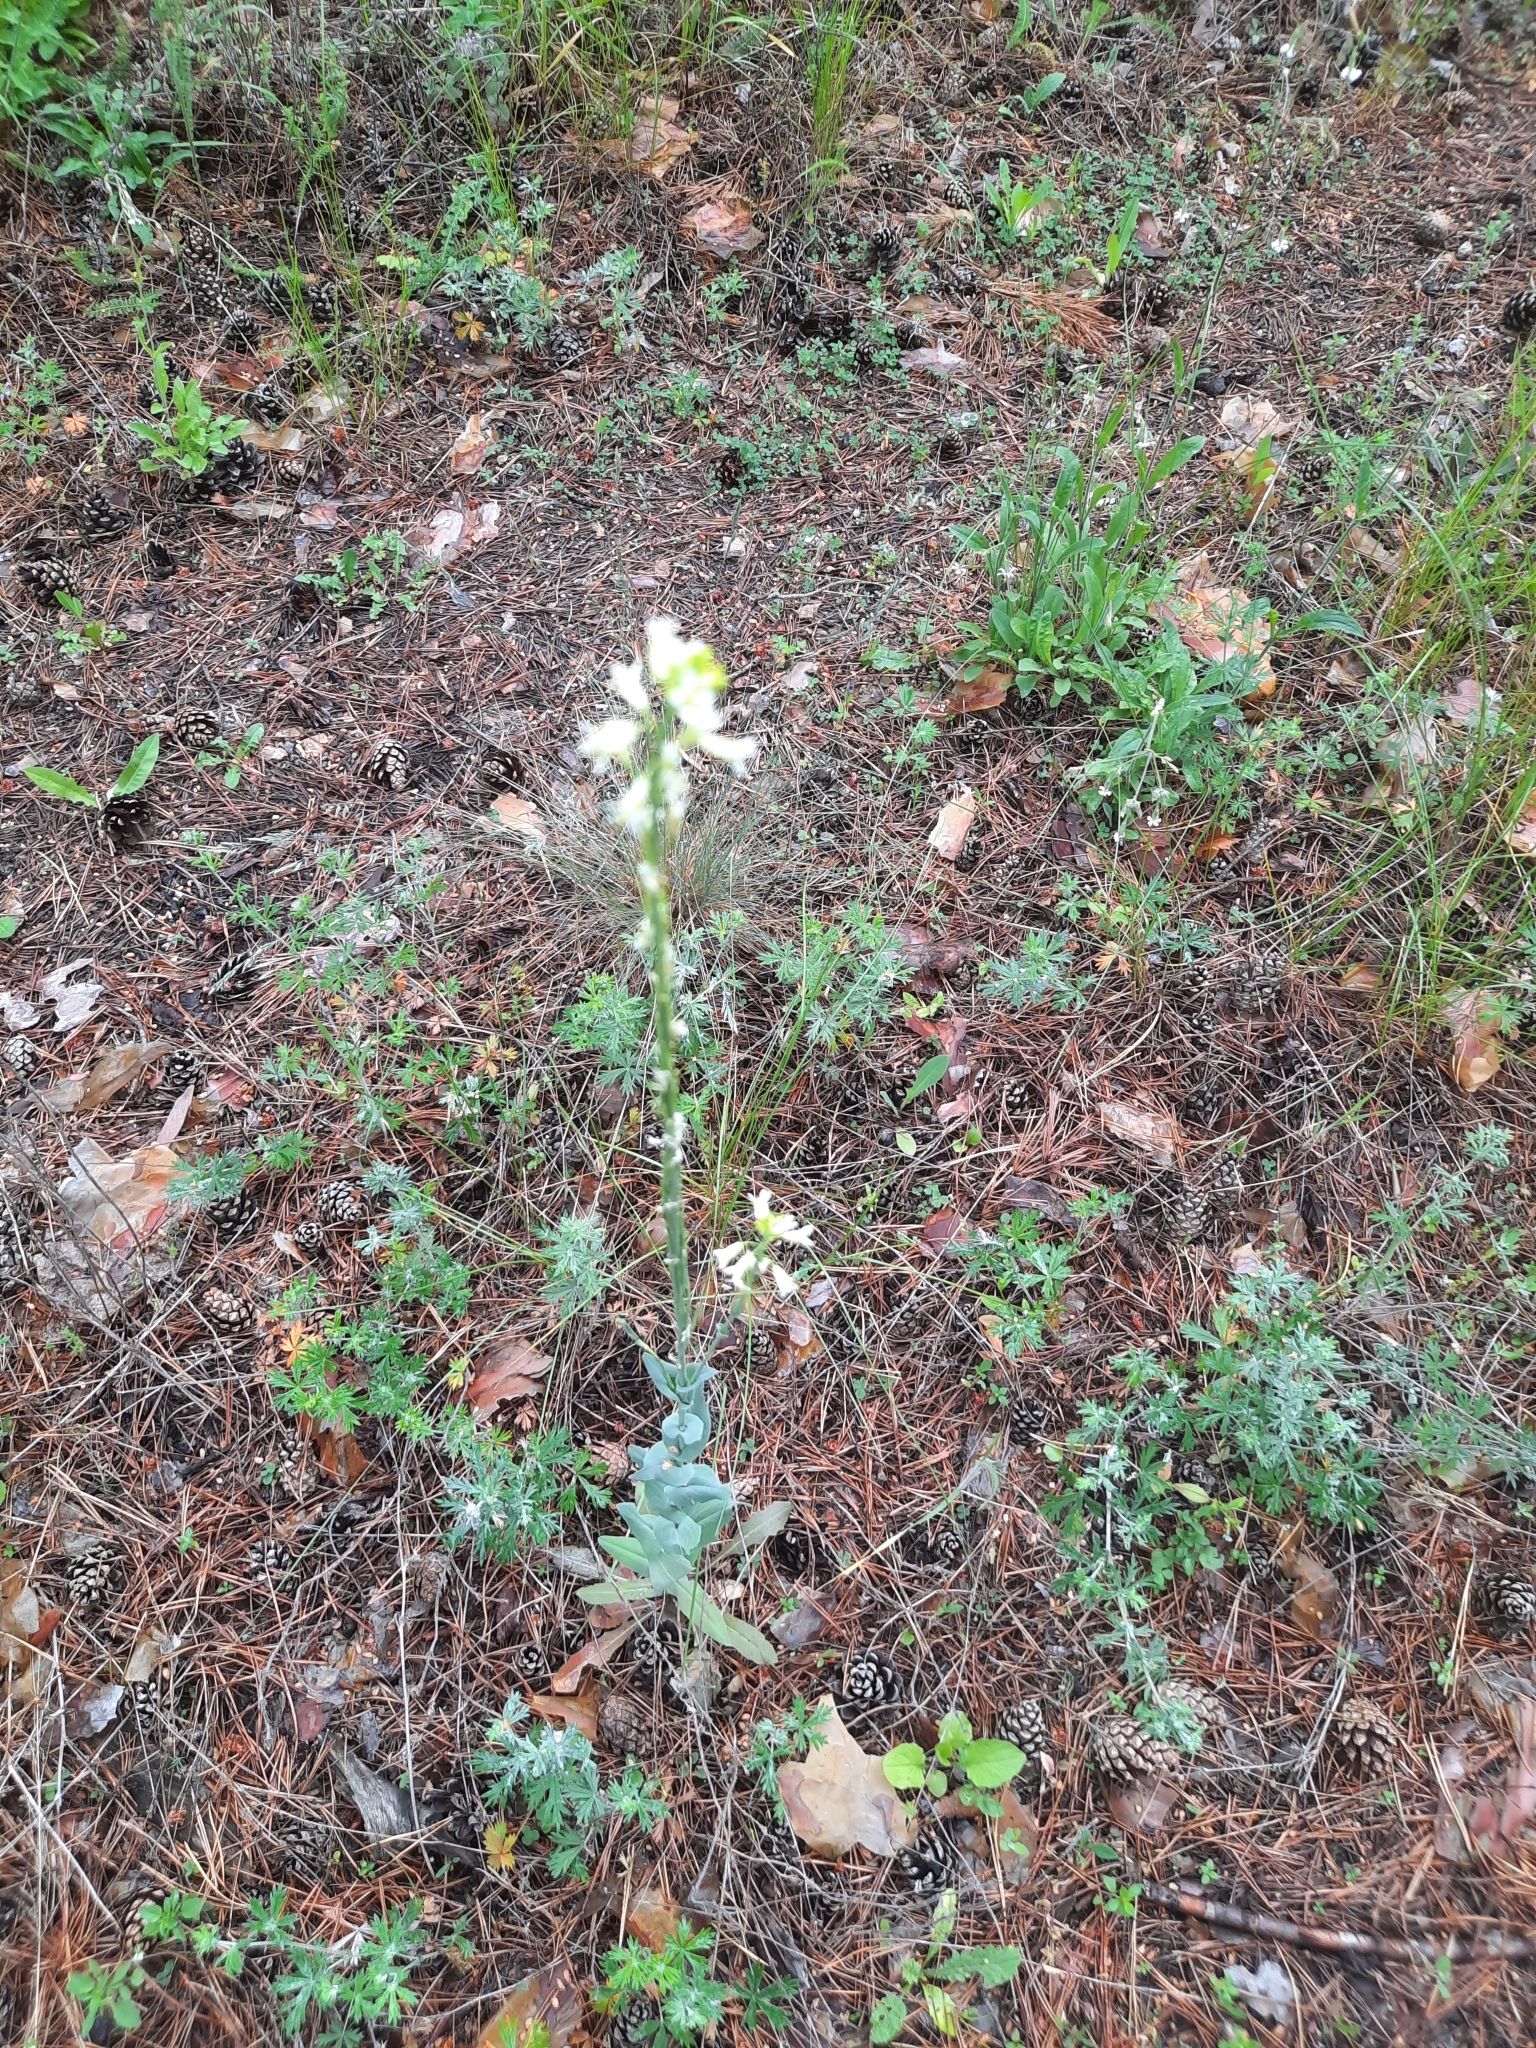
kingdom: Plantae
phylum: Tracheophyta
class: Magnoliopsida
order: Brassicales
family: Brassicaceae
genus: Turritis
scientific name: Turritis glabra
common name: Tower rockcress
